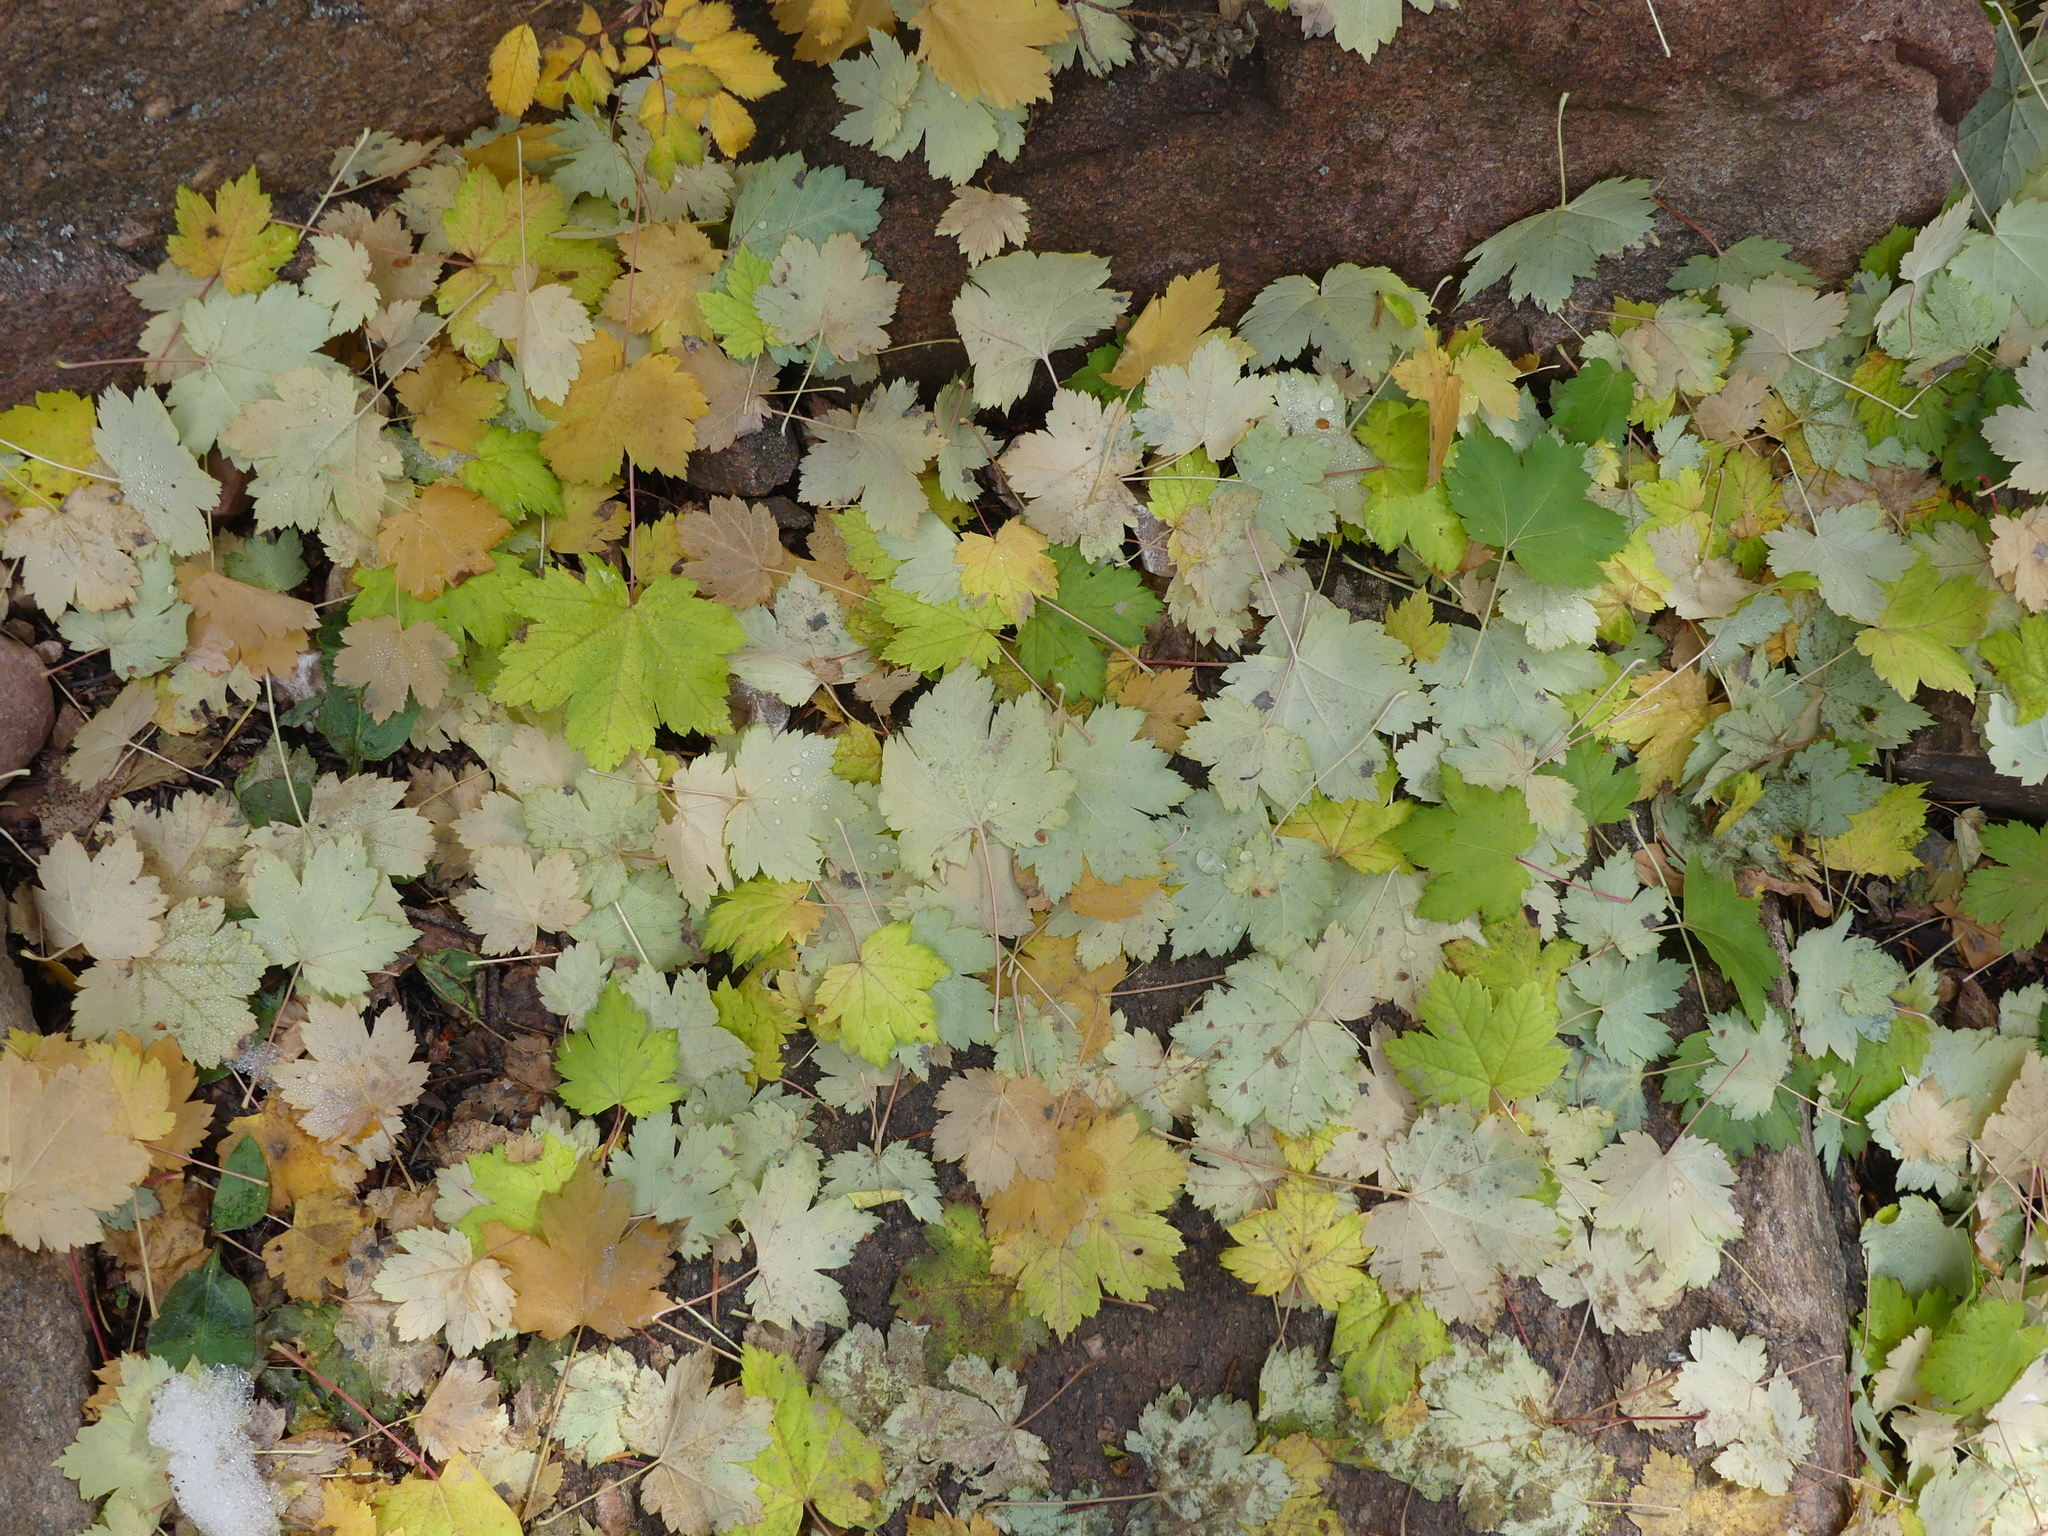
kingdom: Plantae
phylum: Tracheophyta
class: Magnoliopsida
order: Sapindales
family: Sapindaceae
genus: Acer
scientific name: Acer glabrum
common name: Rocky mountain maple
